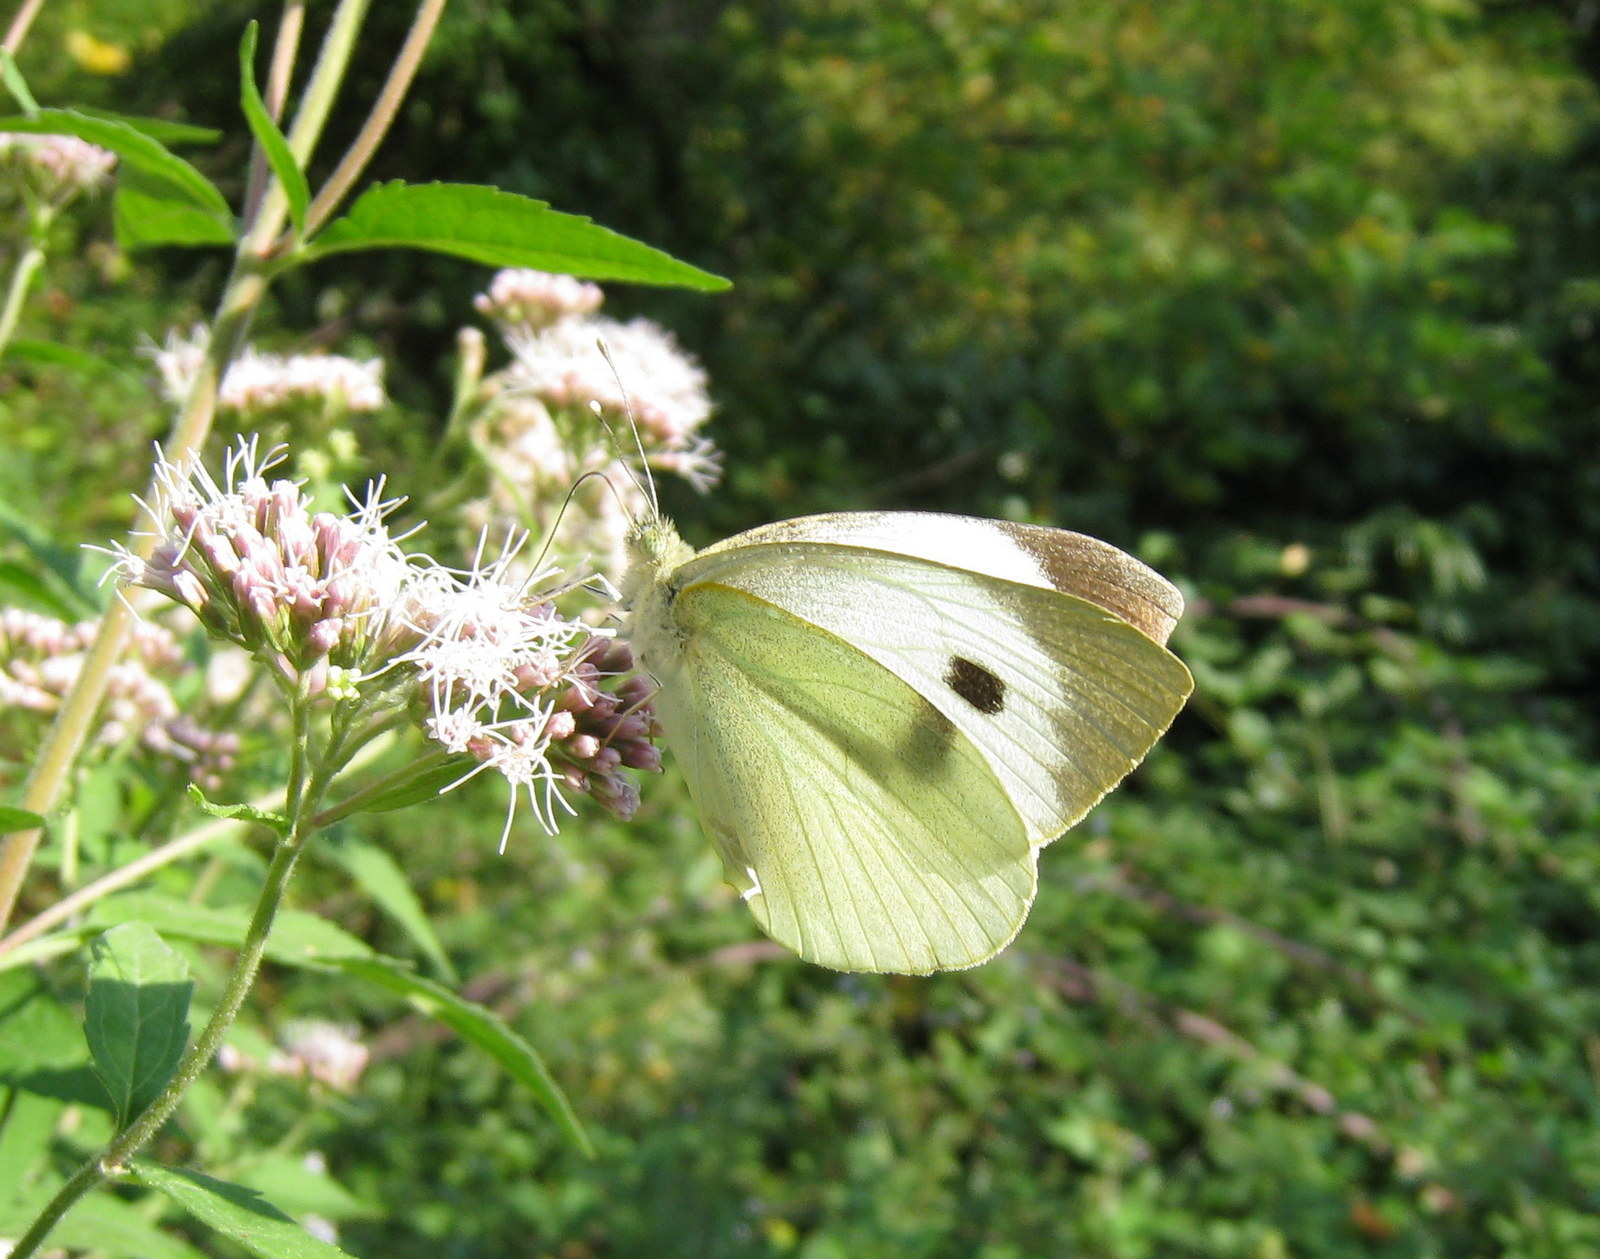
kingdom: Animalia
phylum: Arthropoda
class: Insecta
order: Lepidoptera
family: Pieridae
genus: Pieris
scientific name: Pieris brassicae
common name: Large white
